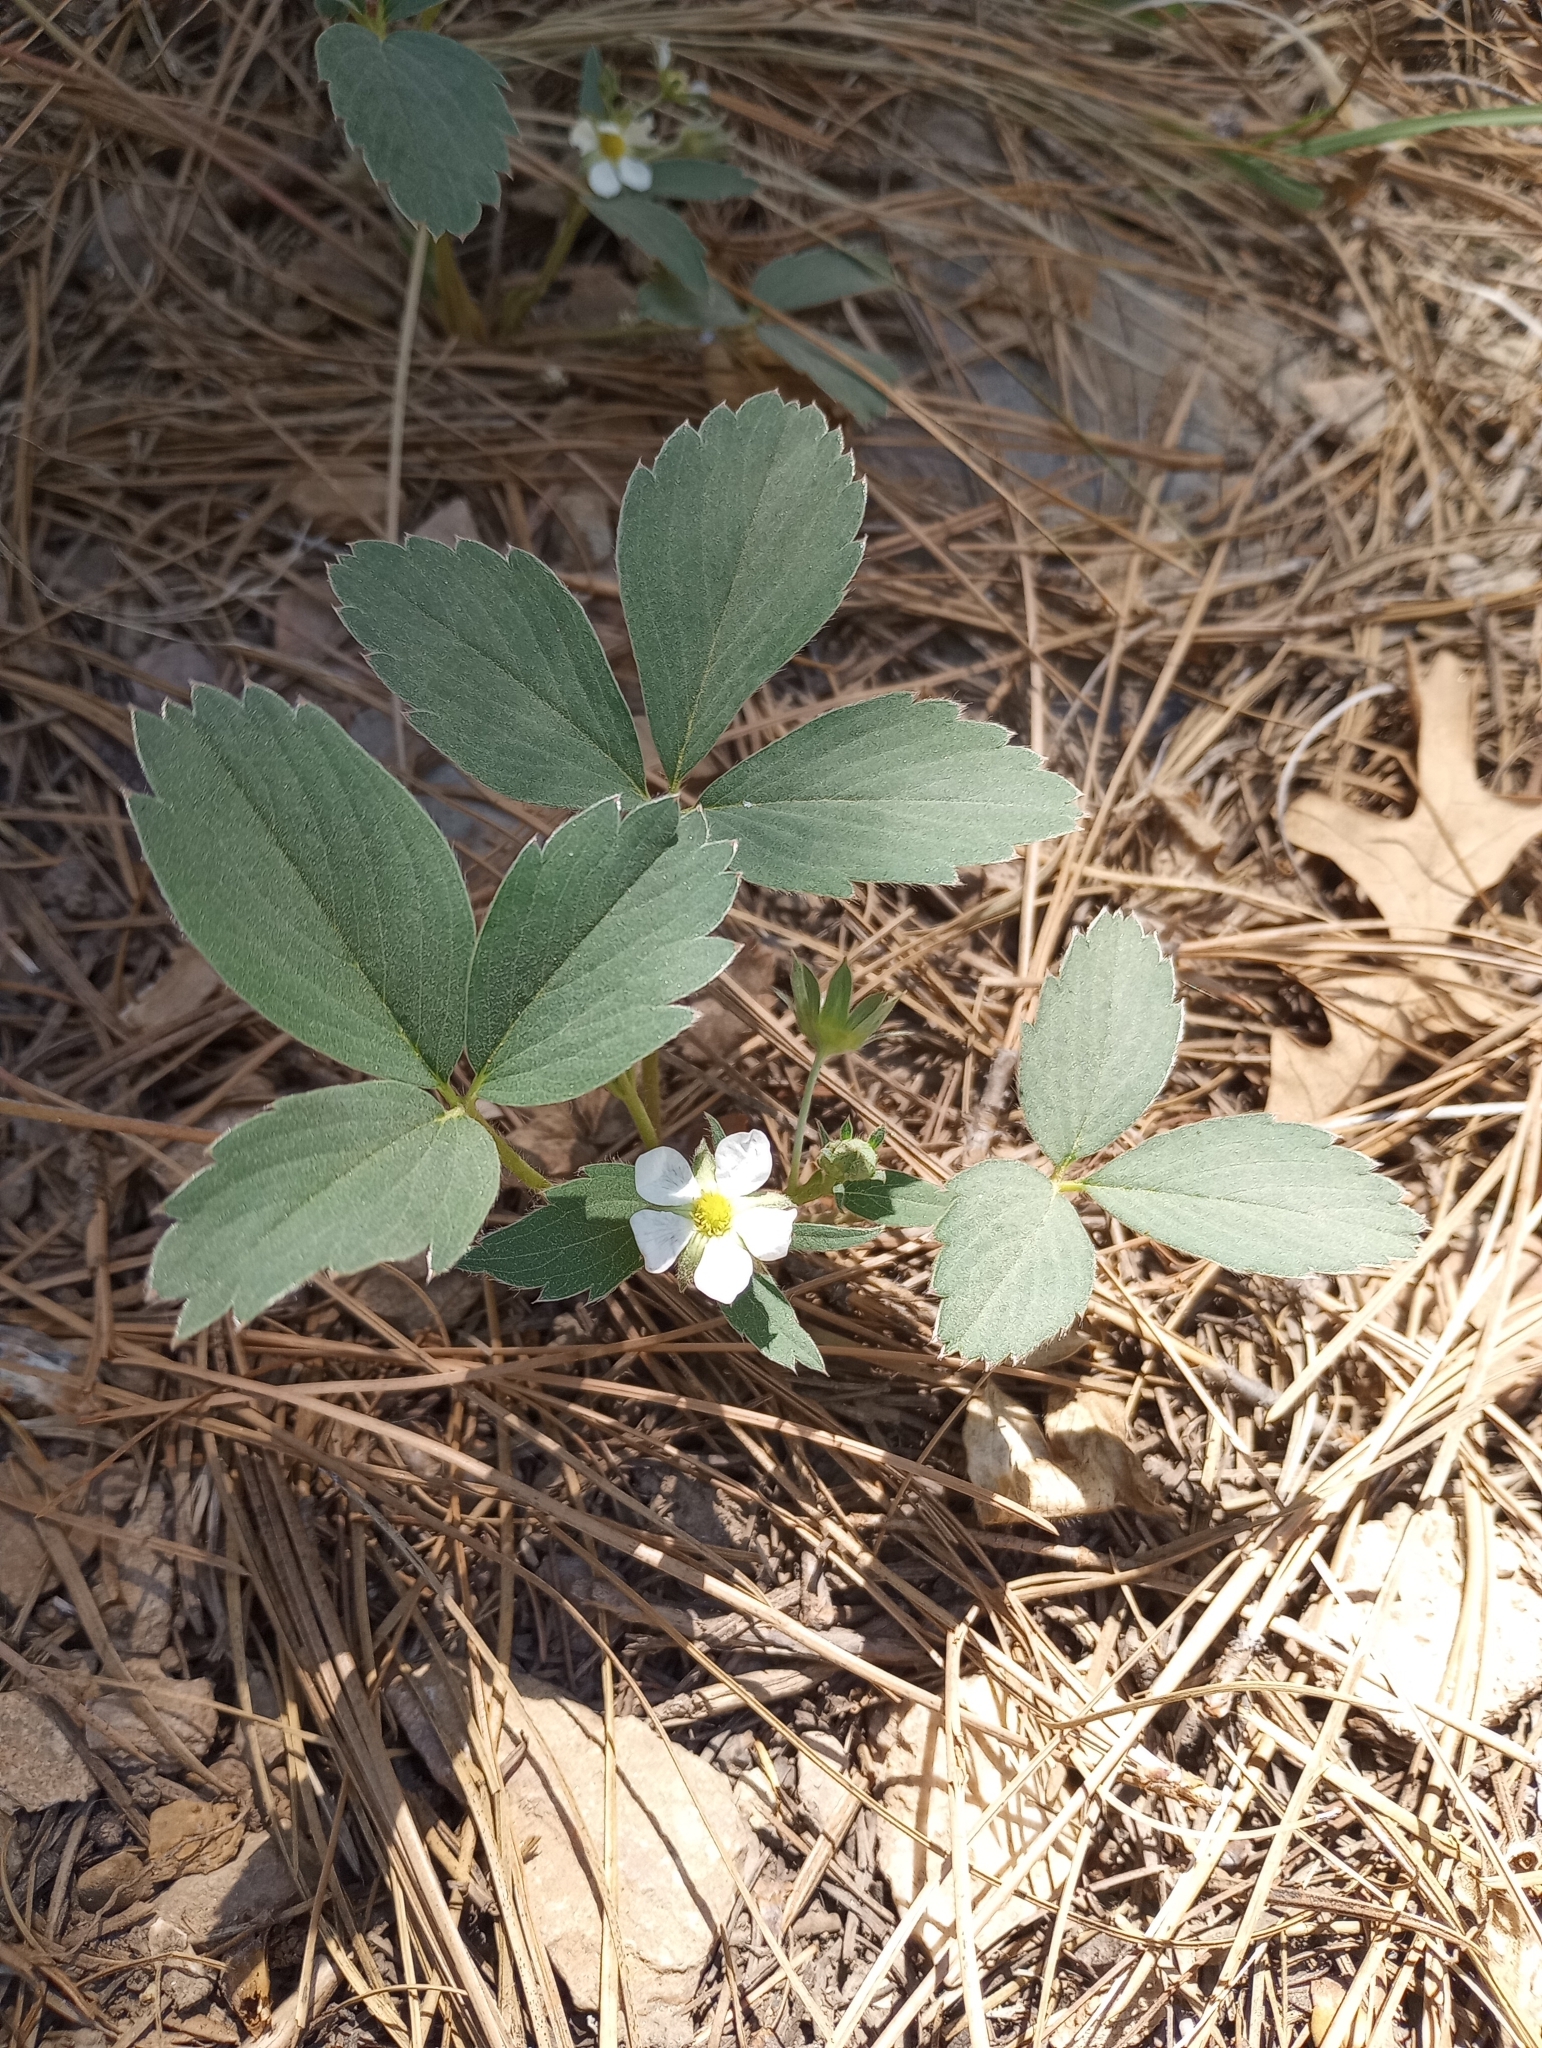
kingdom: Plantae
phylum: Tracheophyta
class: Magnoliopsida
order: Rosales
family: Rosaceae
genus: Fragaria
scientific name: Fragaria virginiana
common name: Thickleaved wild strawberry
